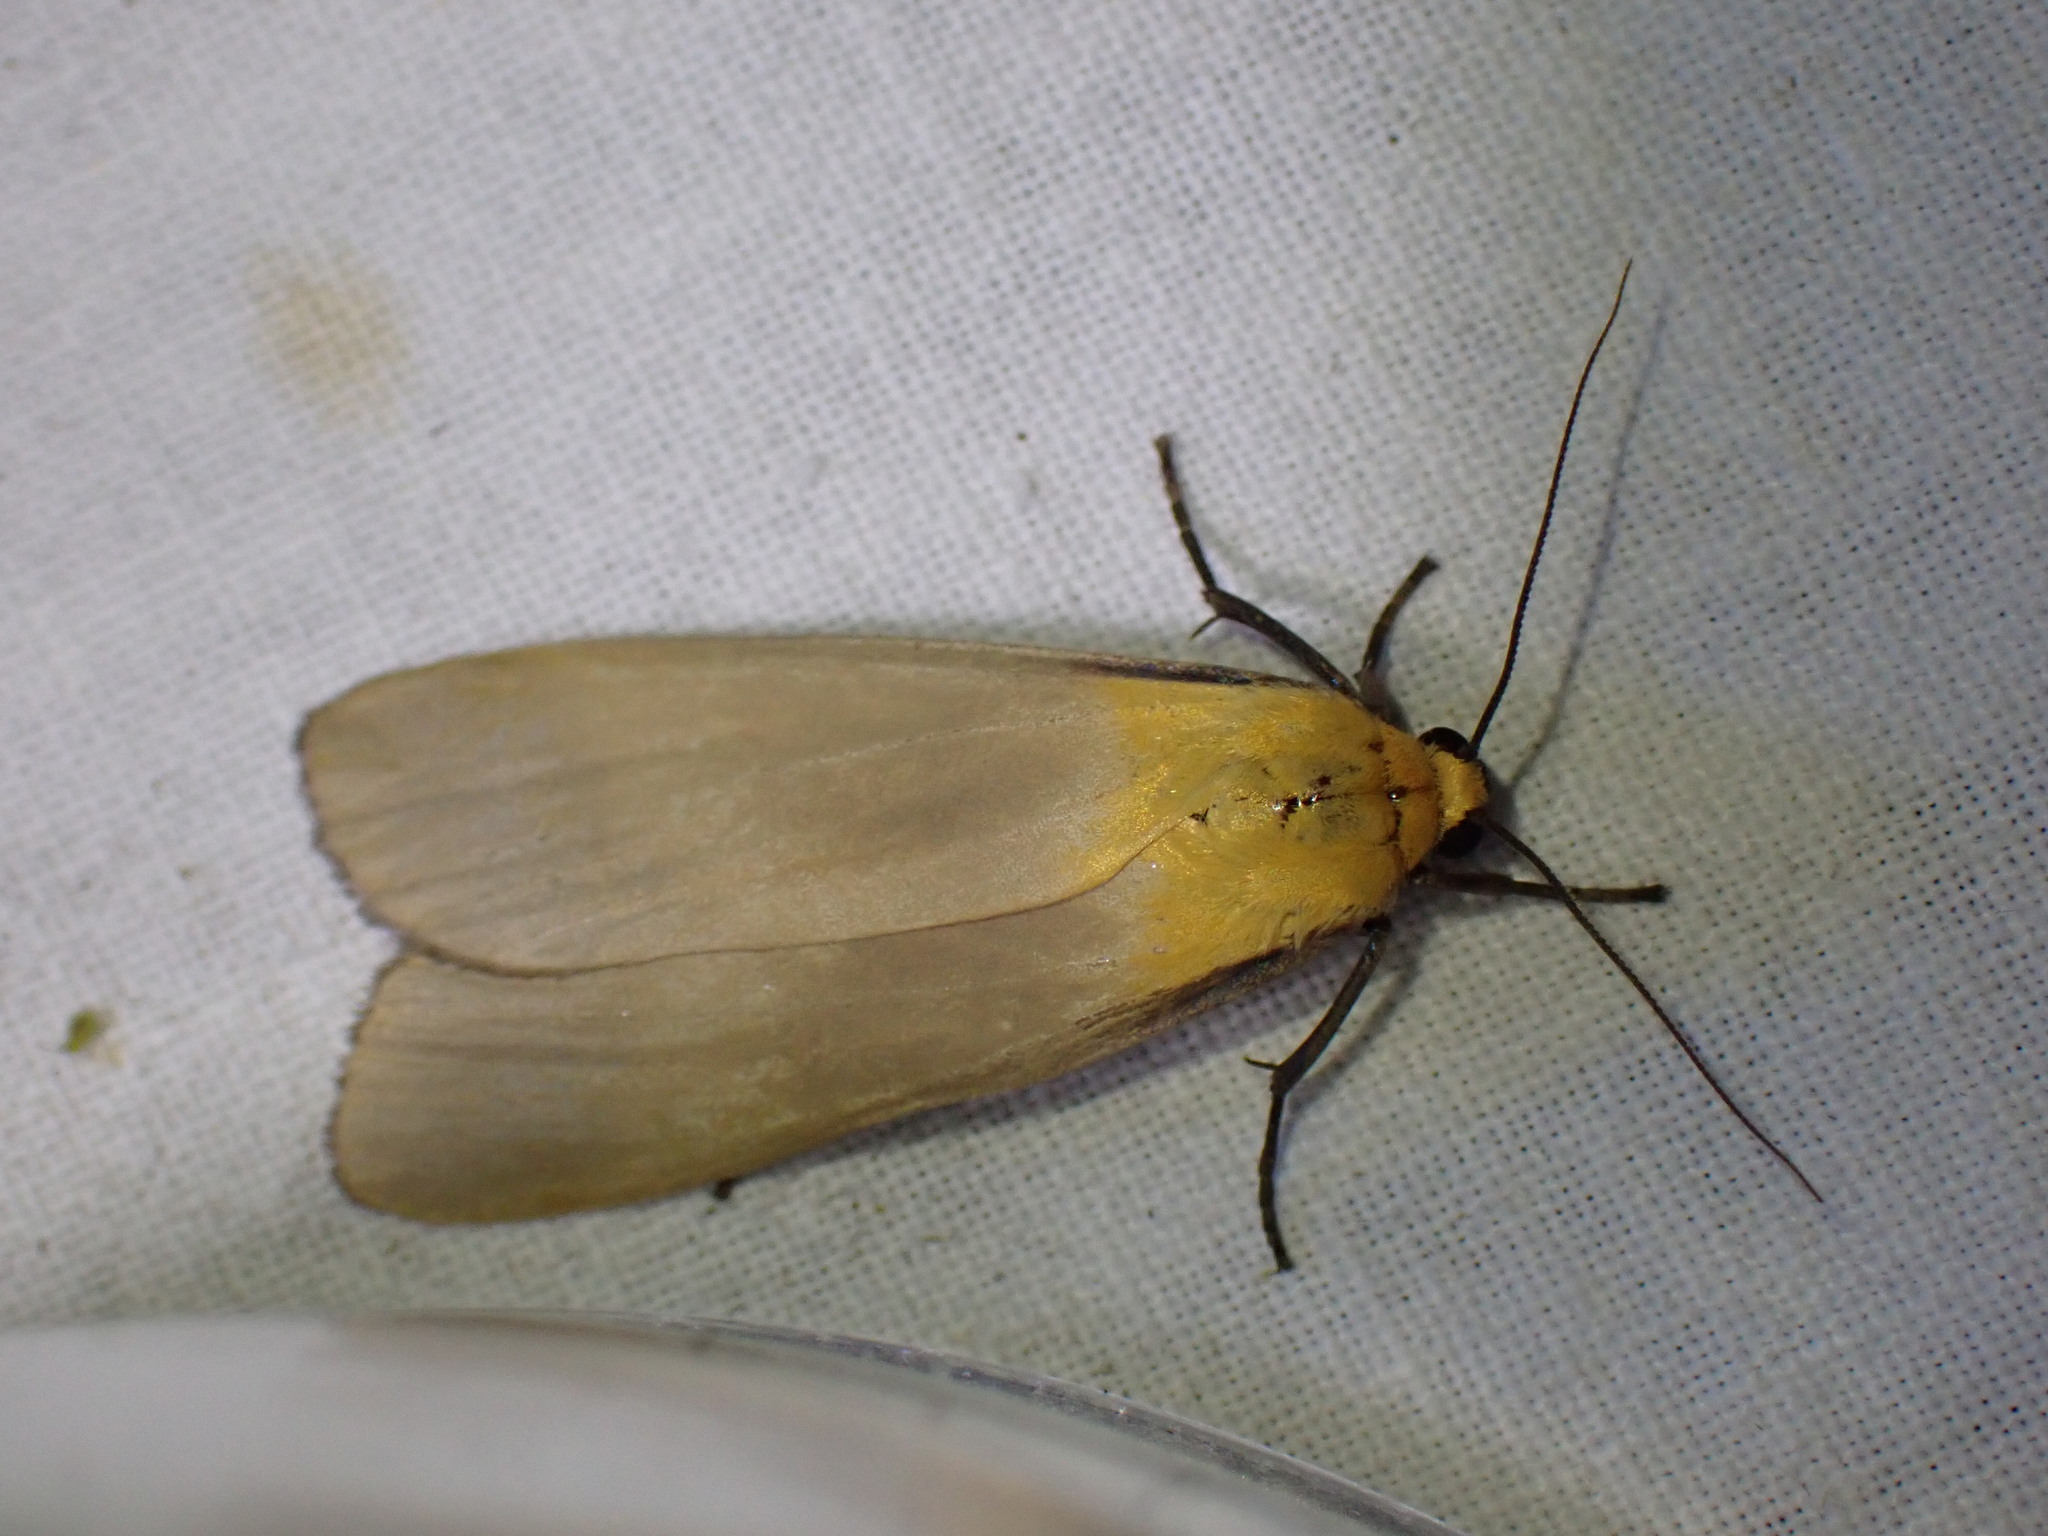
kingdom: Animalia
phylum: Arthropoda
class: Insecta
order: Lepidoptera
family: Erebidae
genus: Lithosia
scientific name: Lithosia quadra
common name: Four-spotted footman
